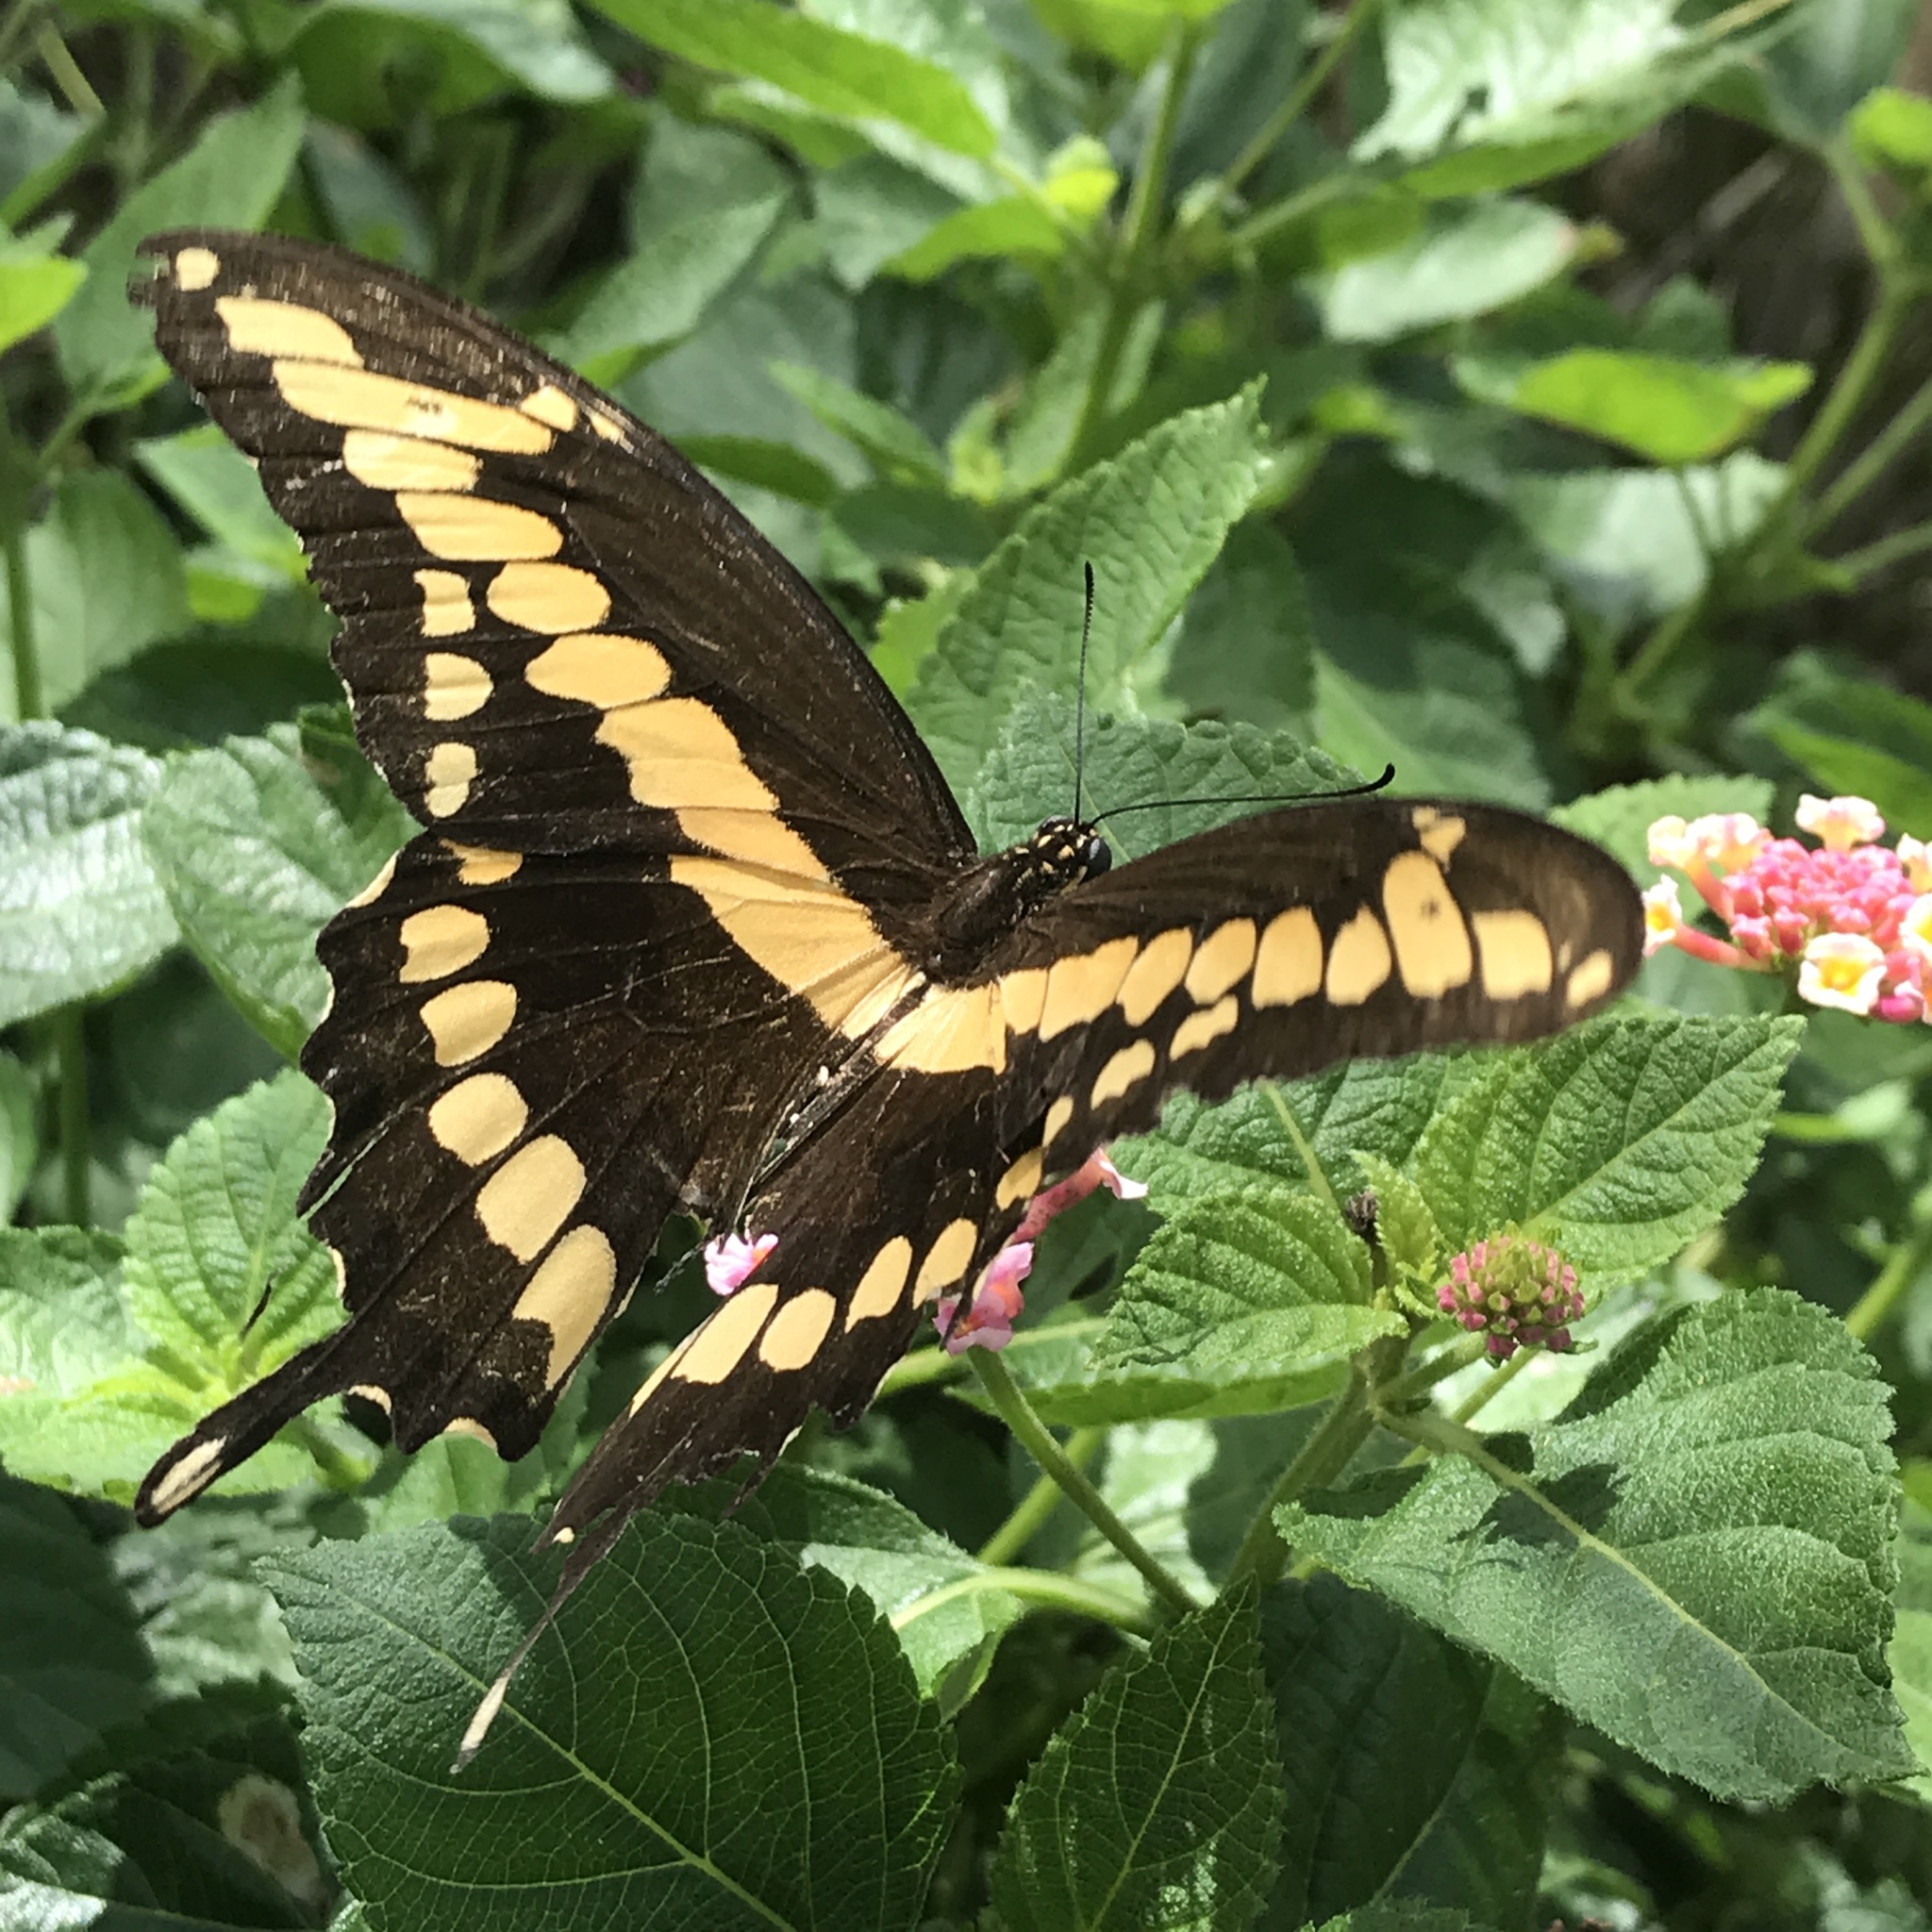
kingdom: Animalia
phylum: Arthropoda
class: Insecta
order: Lepidoptera
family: Papilionidae
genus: Papilio
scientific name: Papilio cresphontes
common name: Giant swallowtail
